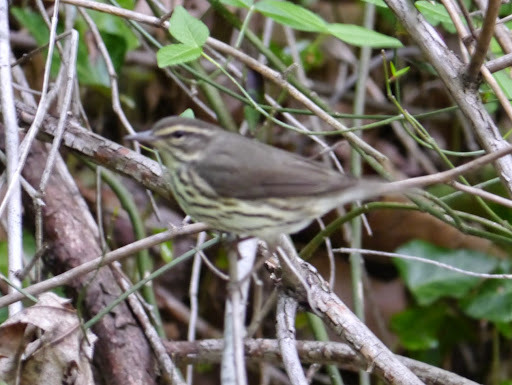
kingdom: Animalia
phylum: Chordata
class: Aves
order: Passeriformes
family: Parulidae
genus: Parkesia
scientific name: Parkesia noveboracensis
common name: Northern waterthrush
